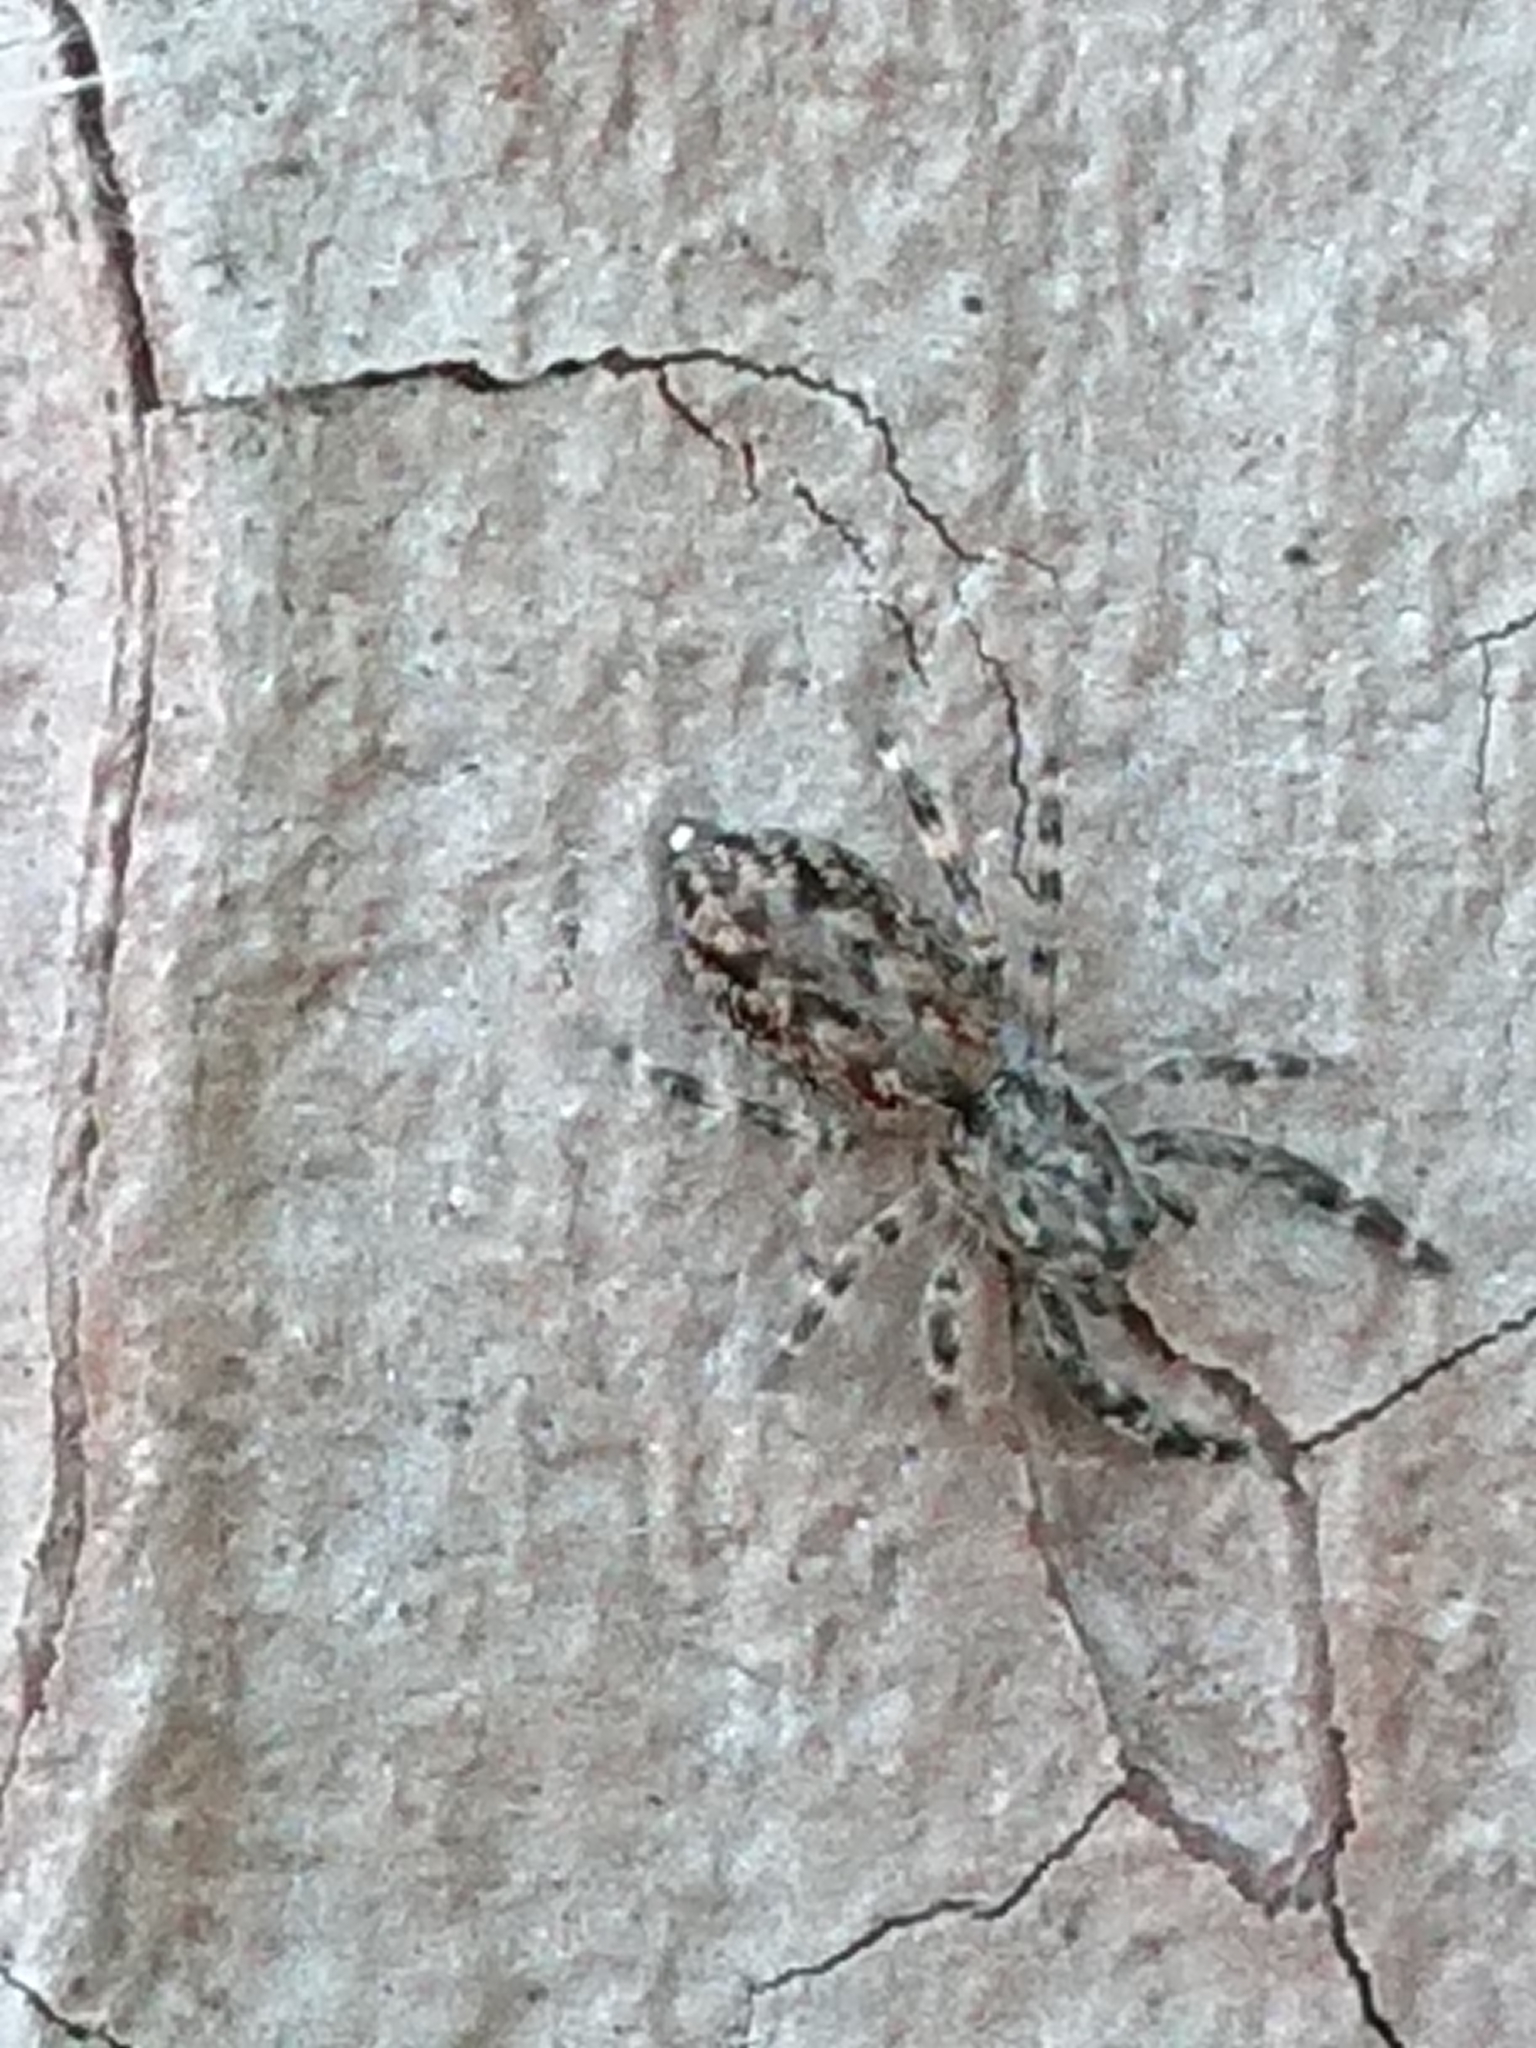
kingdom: Animalia
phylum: Arthropoda
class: Arachnida
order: Araneae
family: Salticidae
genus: Adoxotoma
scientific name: Adoxotoma forsteri
